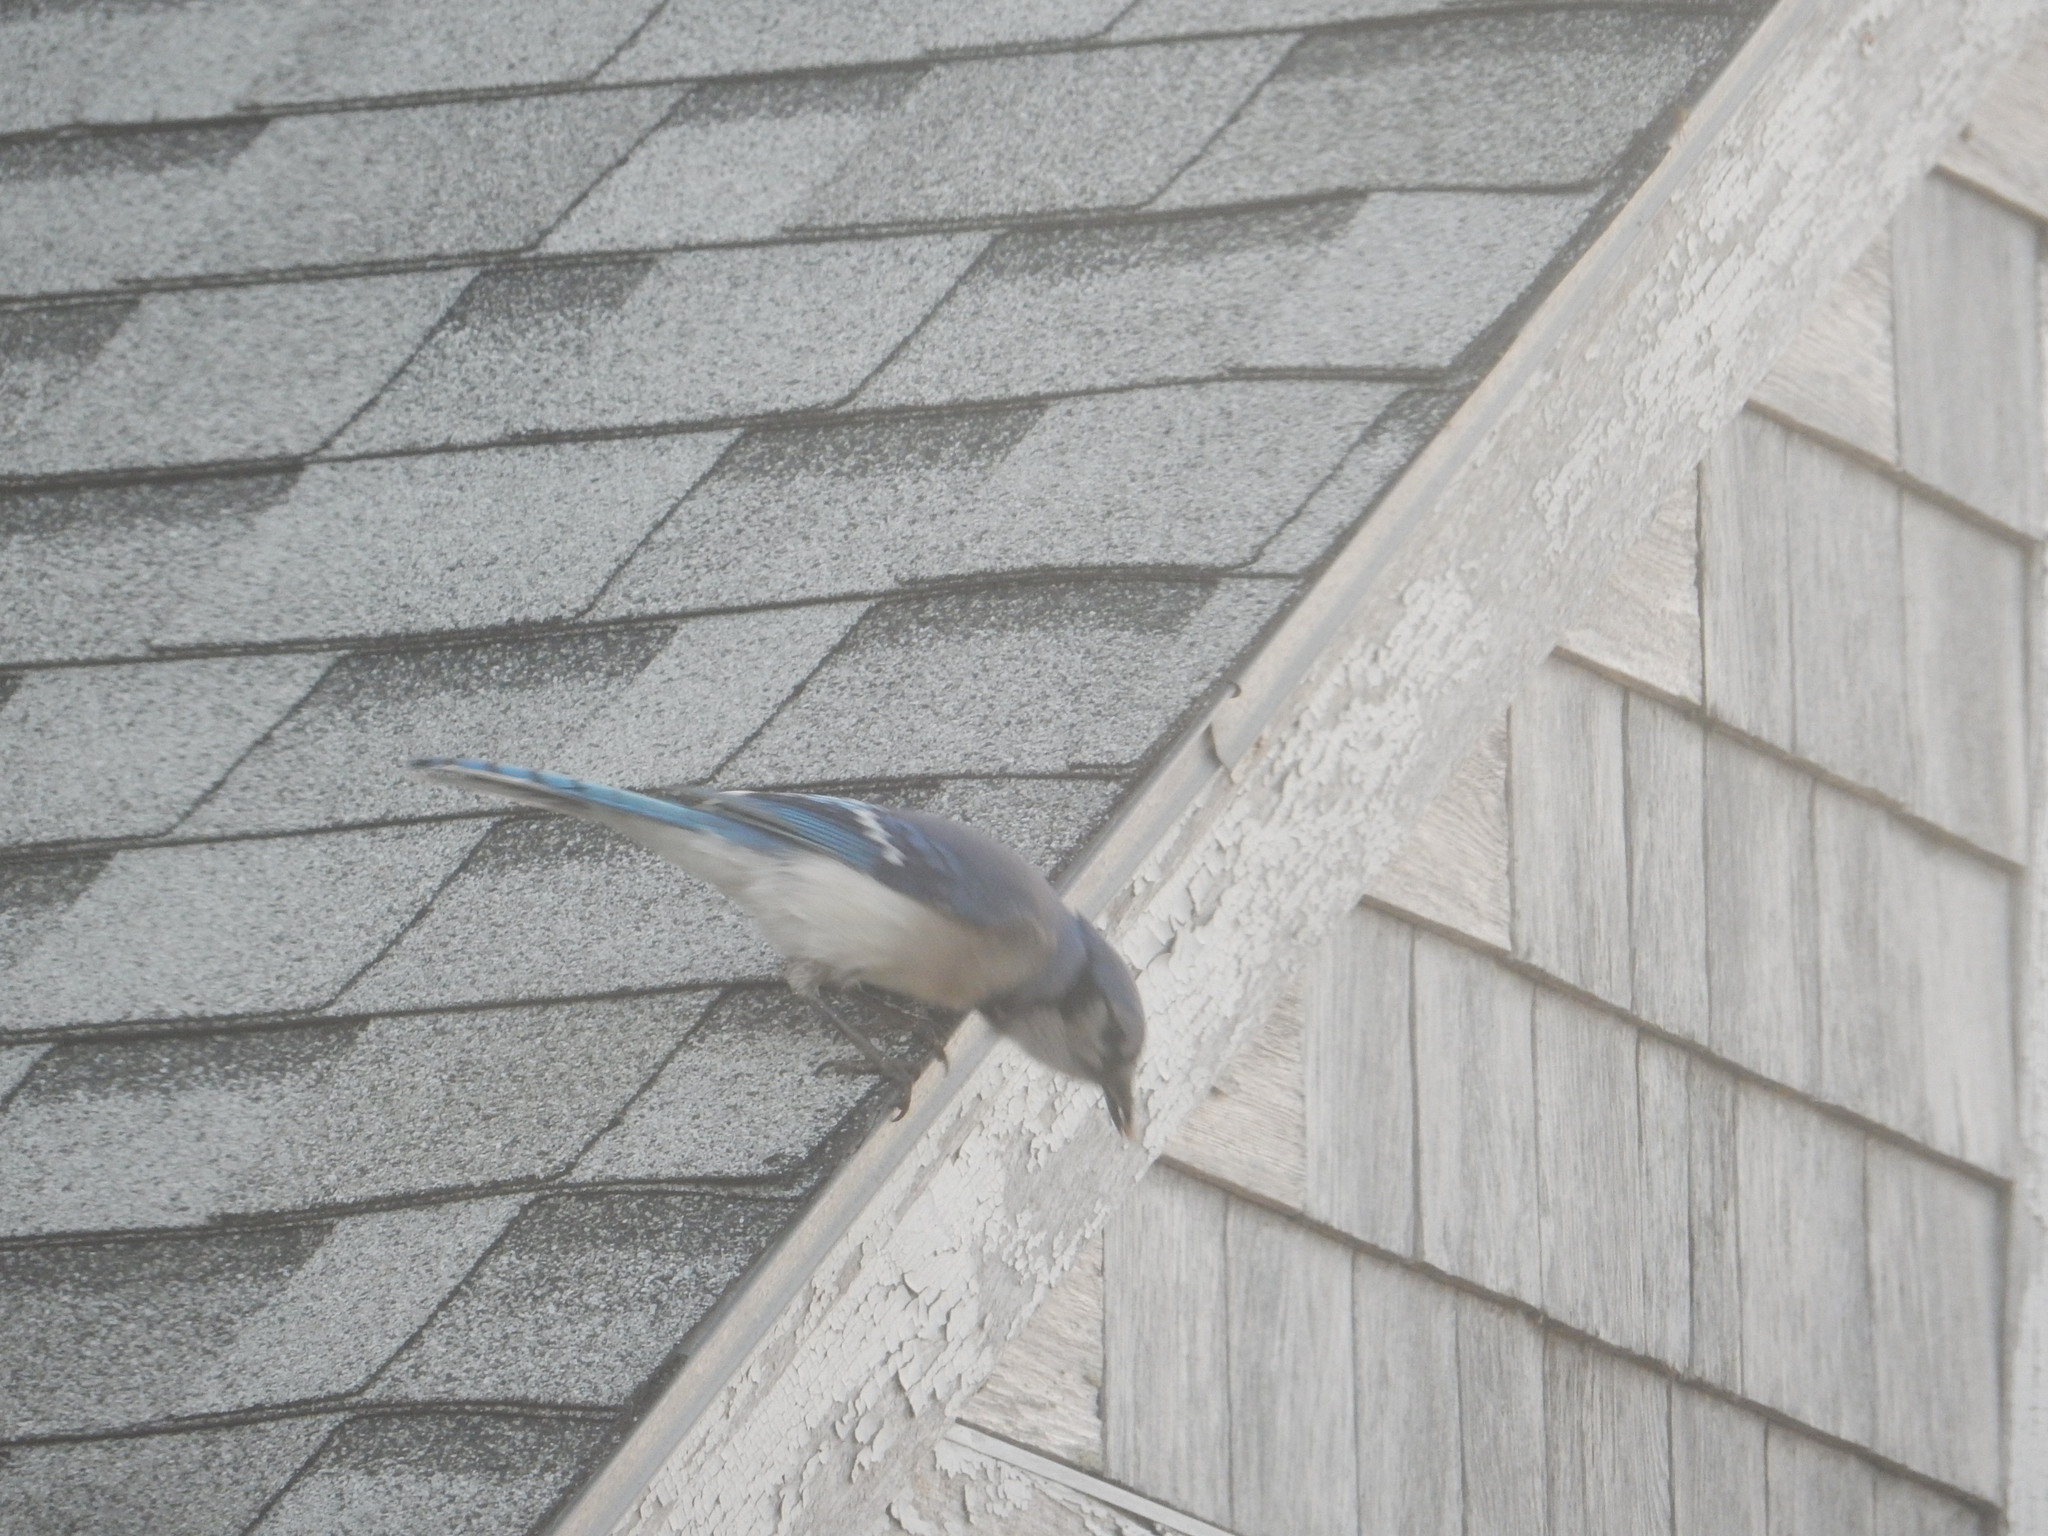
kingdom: Animalia
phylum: Chordata
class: Aves
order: Passeriformes
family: Corvidae
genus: Cyanocitta
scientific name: Cyanocitta cristata
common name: Blue jay
